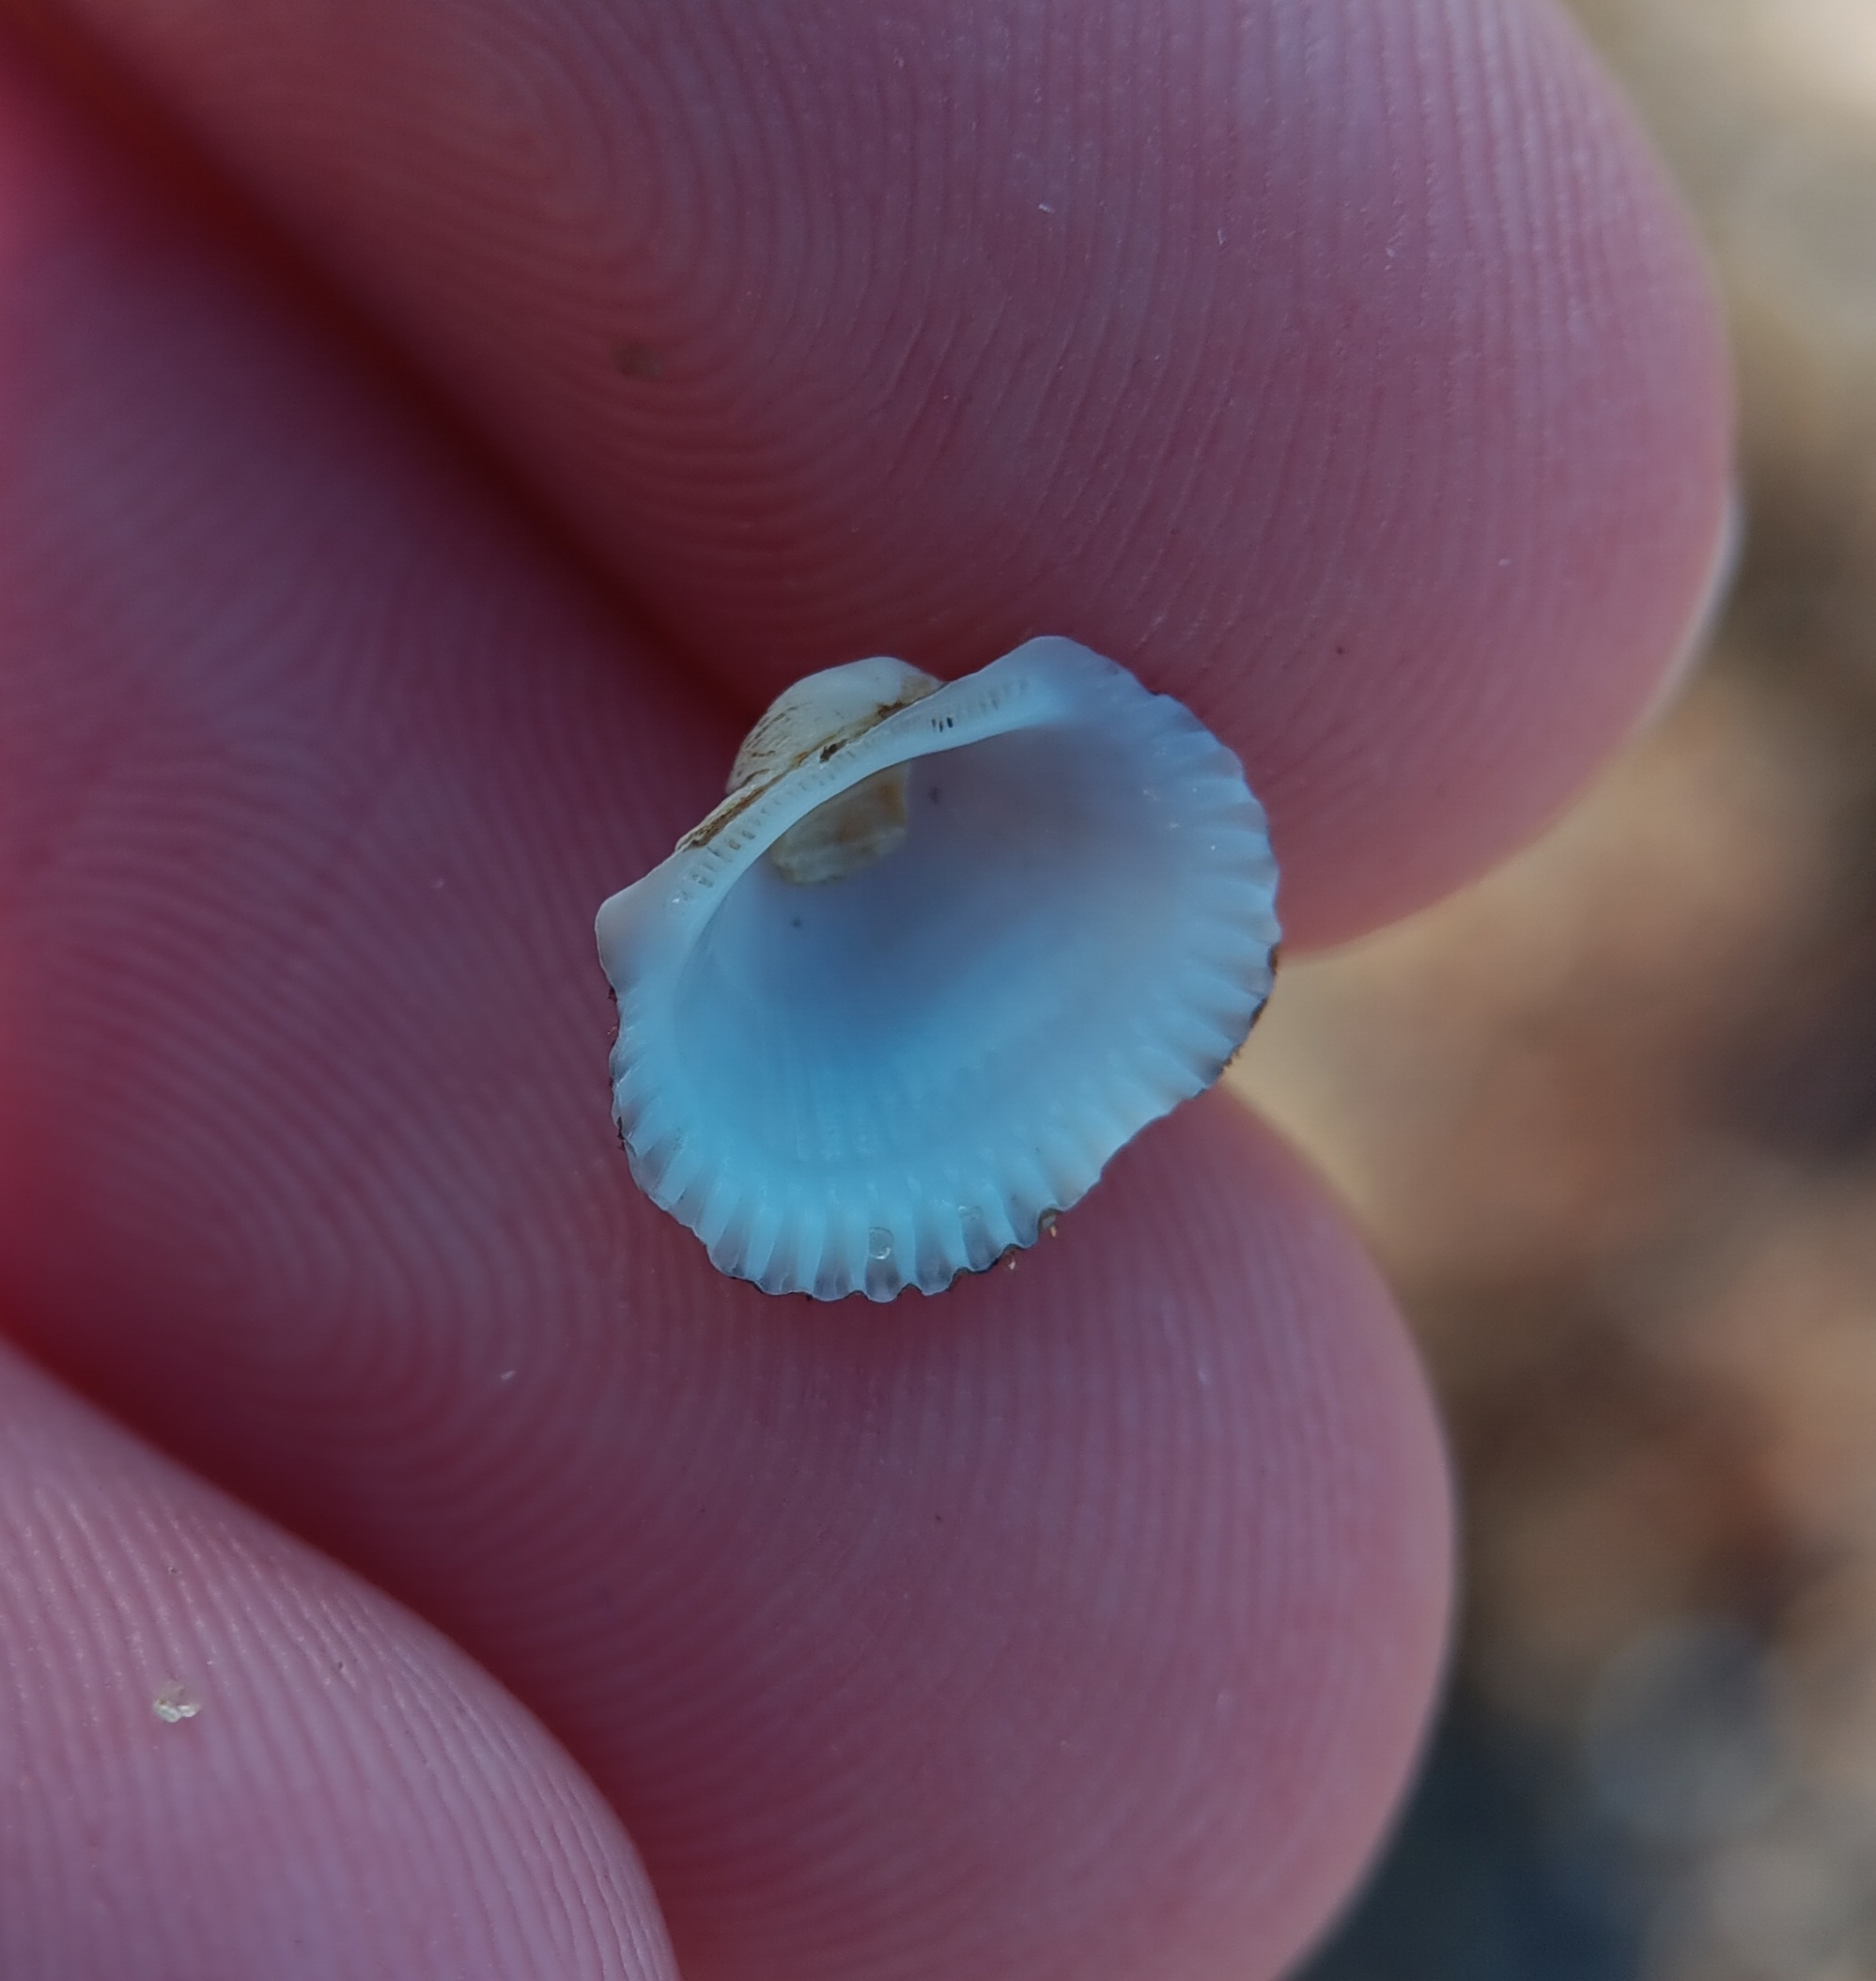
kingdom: Animalia
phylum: Mollusca
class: Bivalvia
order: Arcida
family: Arcidae
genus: Anadara
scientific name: Anadara transversa
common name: Transverse ark
